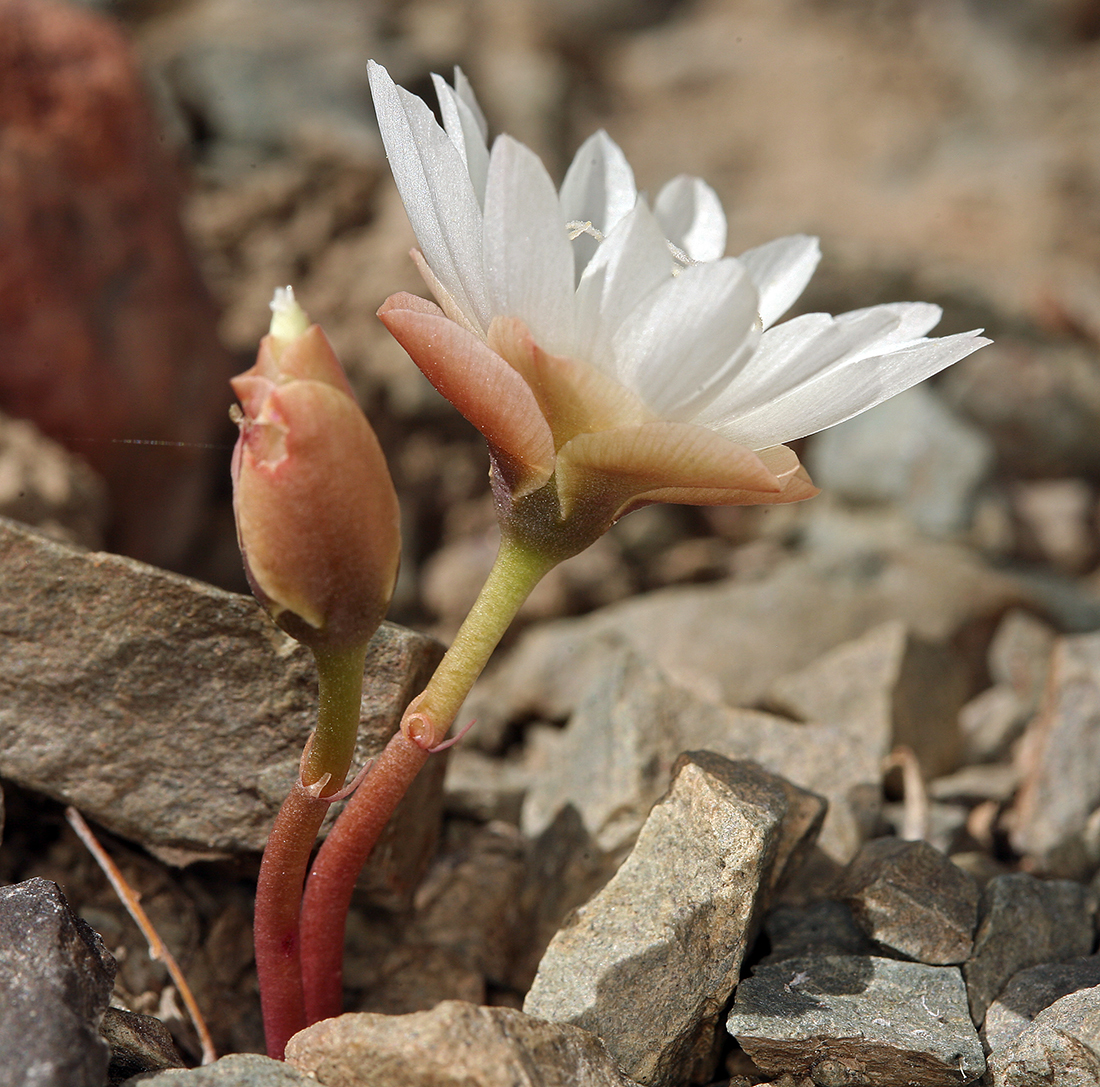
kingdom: Plantae
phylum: Tracheophyta
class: Magnoliopsida
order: Caryophyllales
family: Montiaceae
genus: Lewisia
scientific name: Lewisia rediviva
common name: Bitter-root
